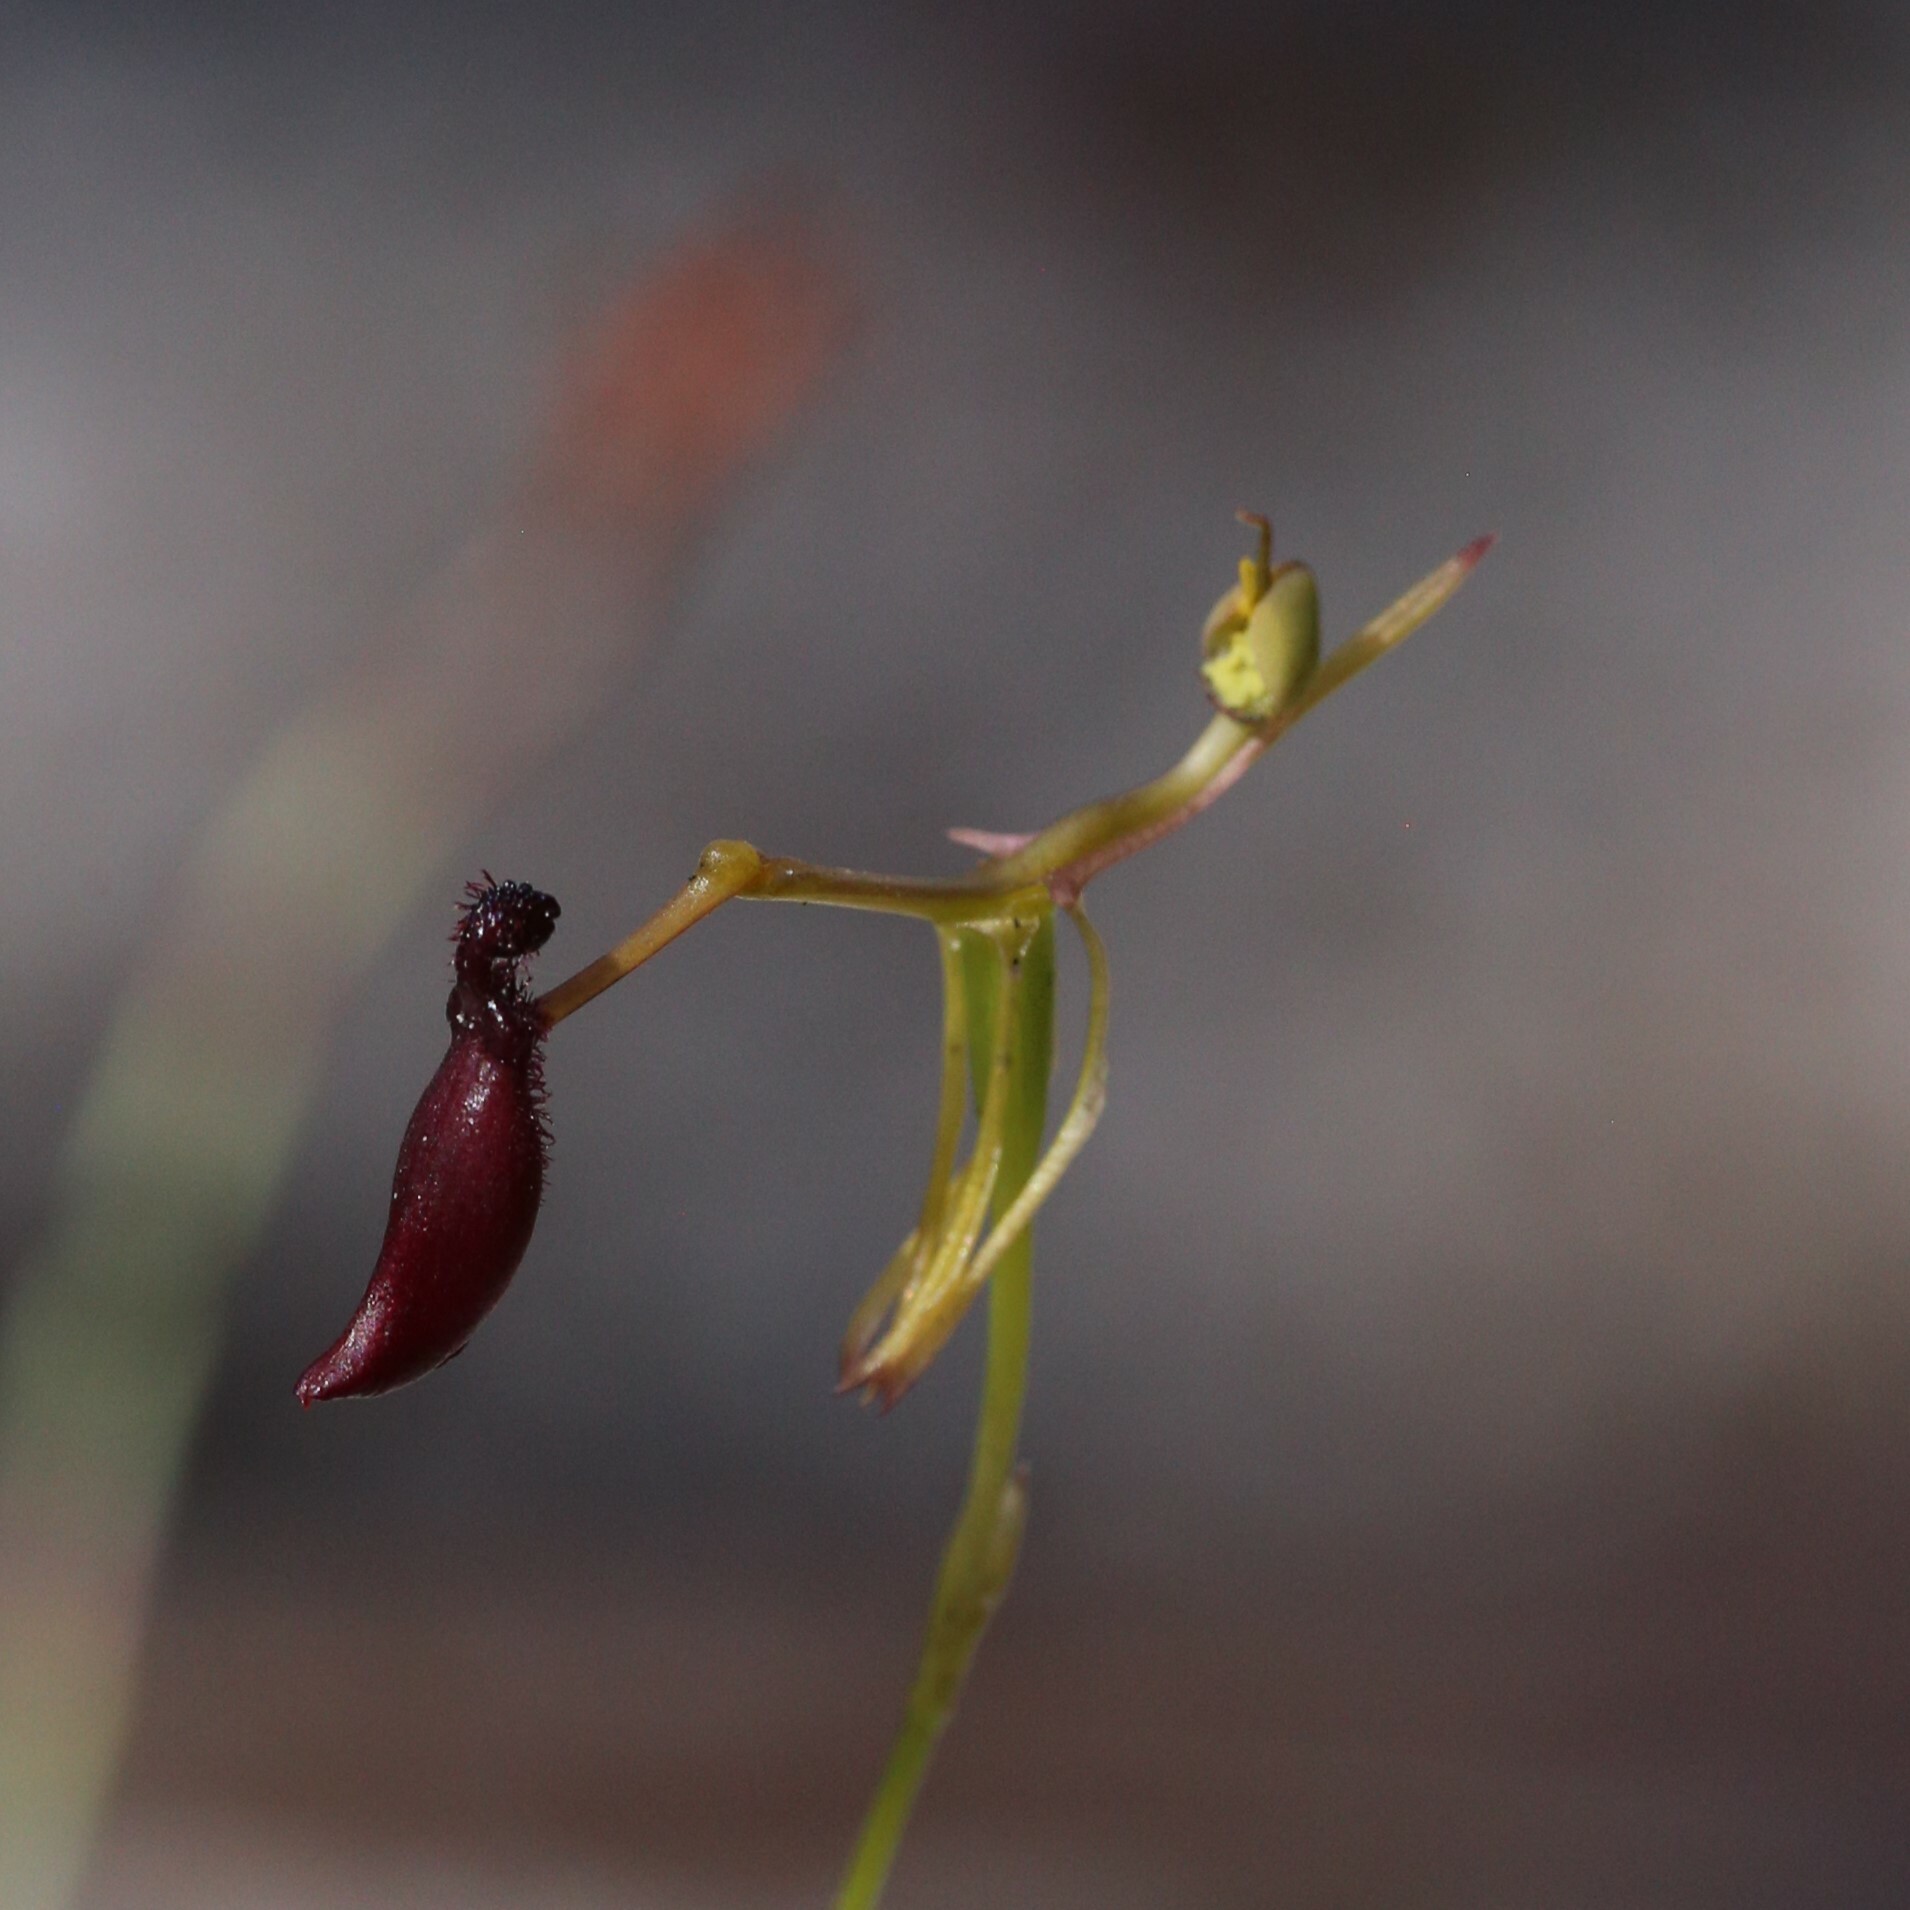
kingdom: Plantae
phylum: Tracheophyta
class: Liliopsida
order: Asparagales
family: Orchidaceae
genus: Drakaea
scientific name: Drakaea micrantha
